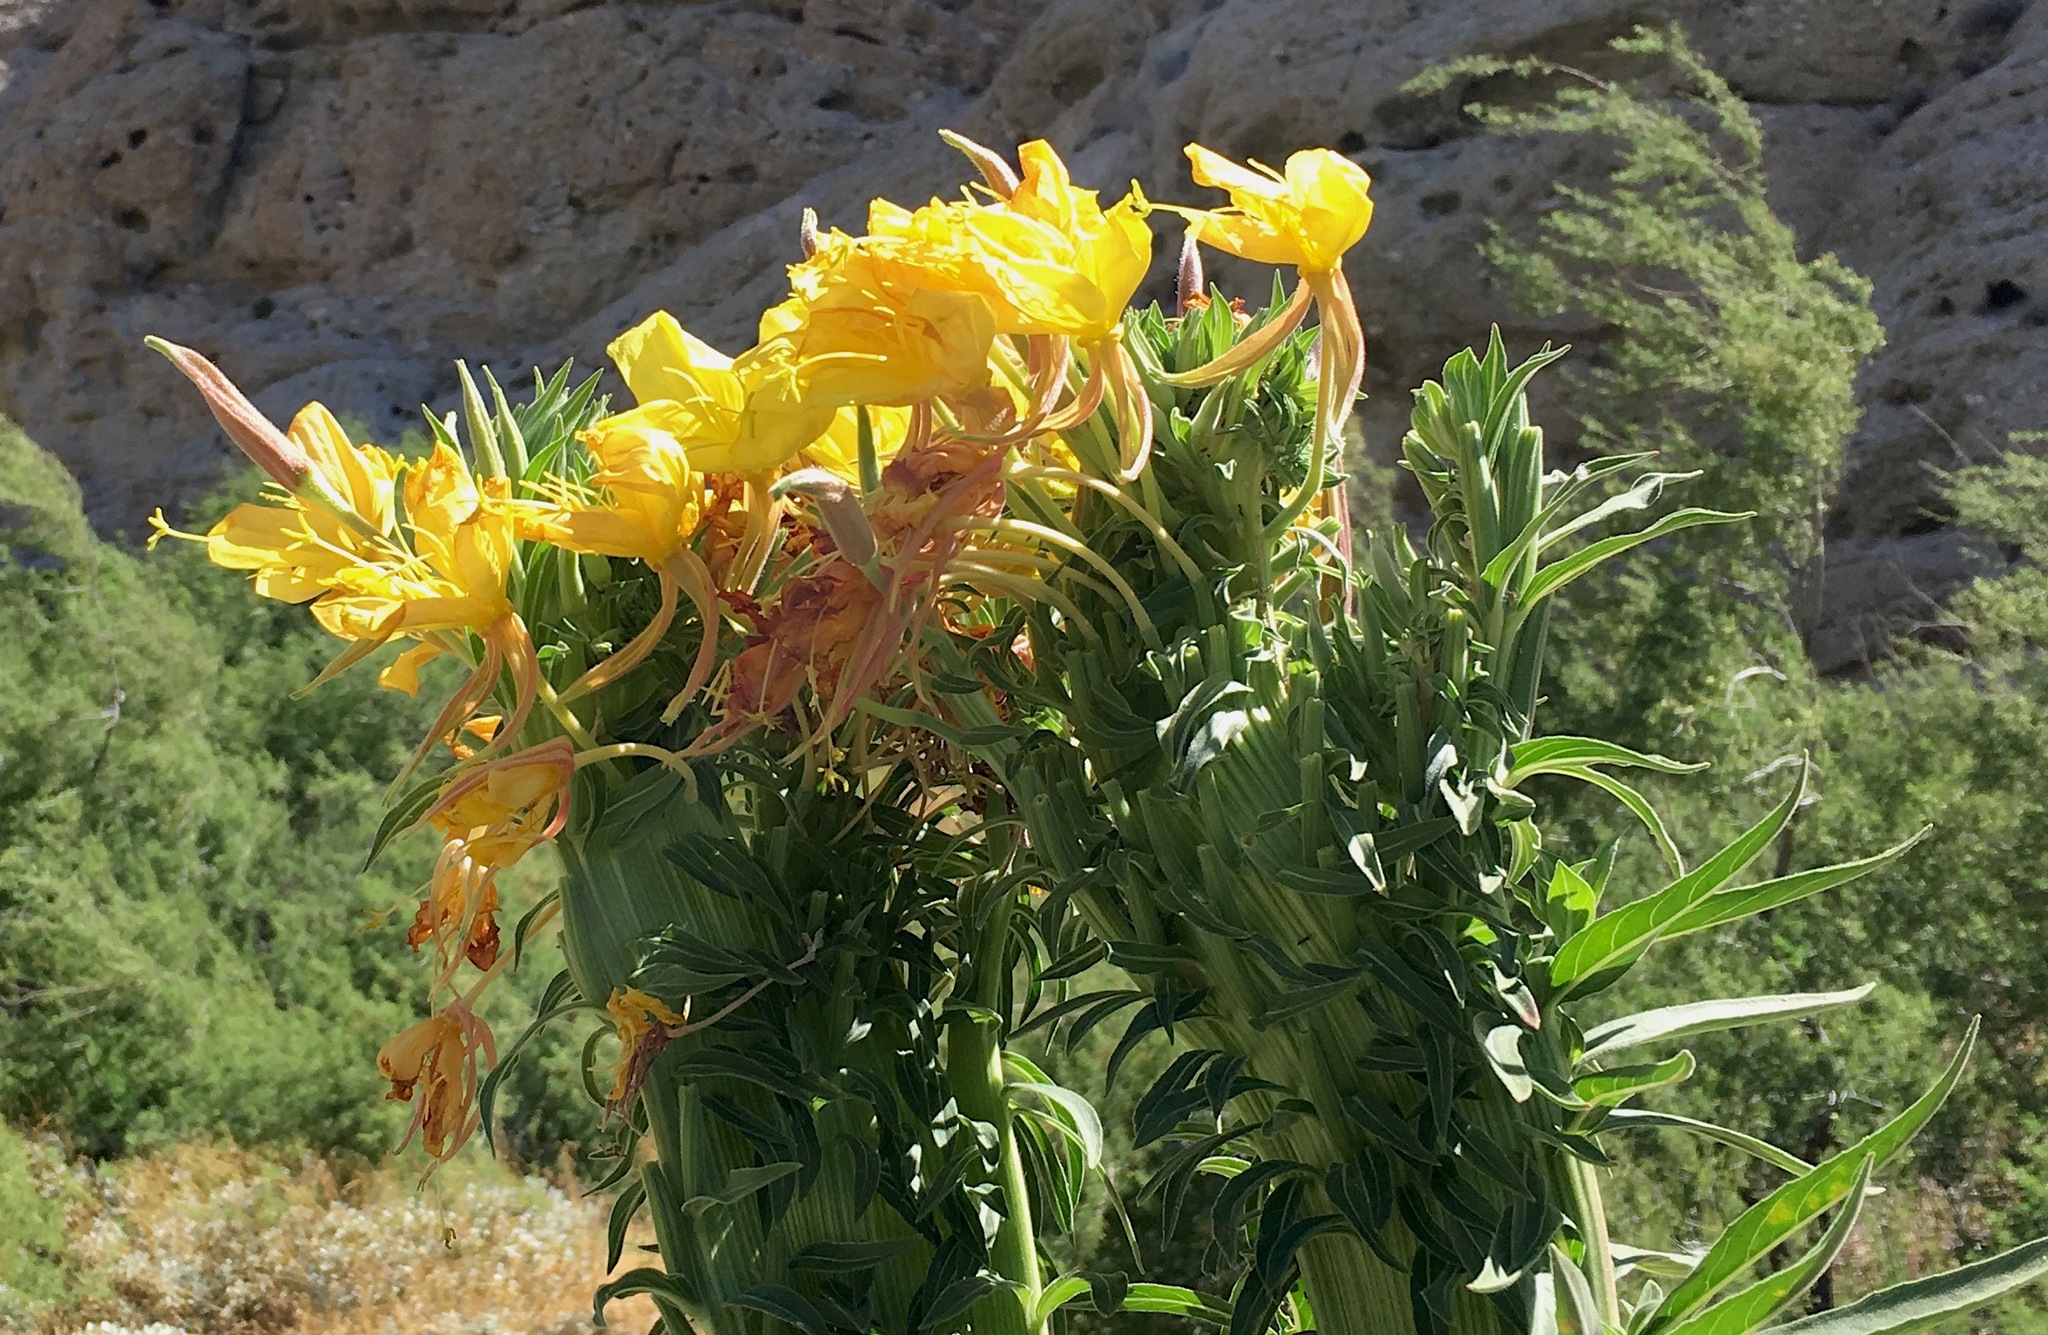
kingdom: Plantae
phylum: Tracheophyta
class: Magnoliopsida
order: Myrtales
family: Onagraceae
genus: Oenothera
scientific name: Oenothera elata
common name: Hooker's evening-primrose
